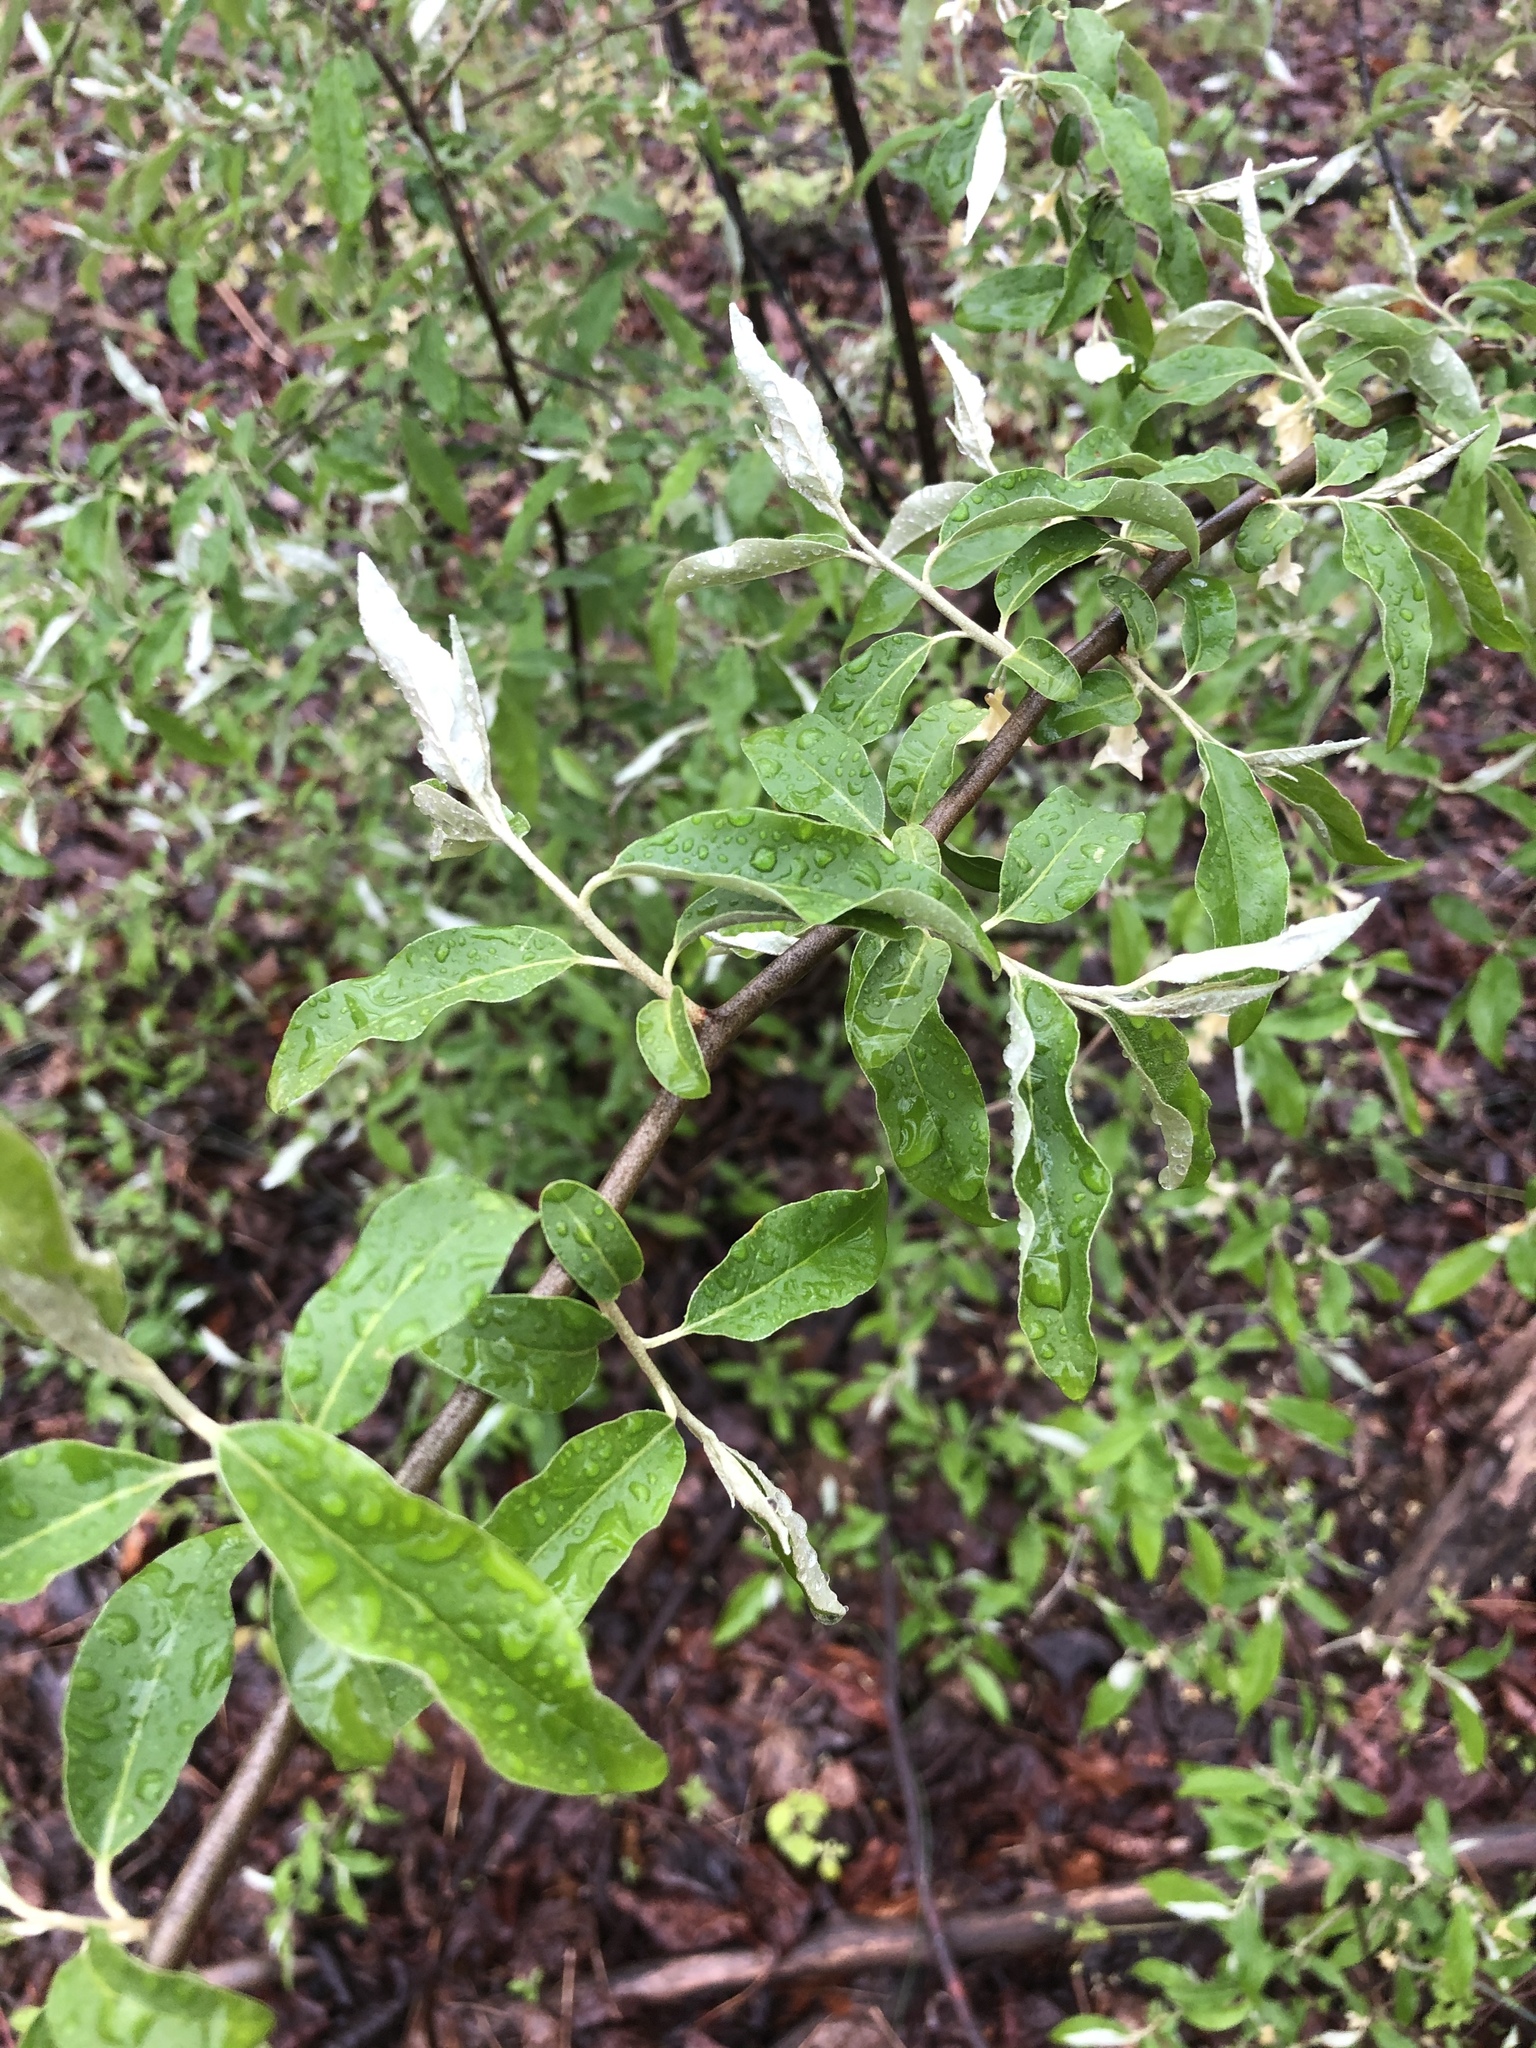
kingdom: Plantae
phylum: Tracheophyta
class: Magnoliopsida
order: Rosales
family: Elaeagnaceae
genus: Elaeagnus
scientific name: Elaeagnus umbellata
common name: Autumn olive
